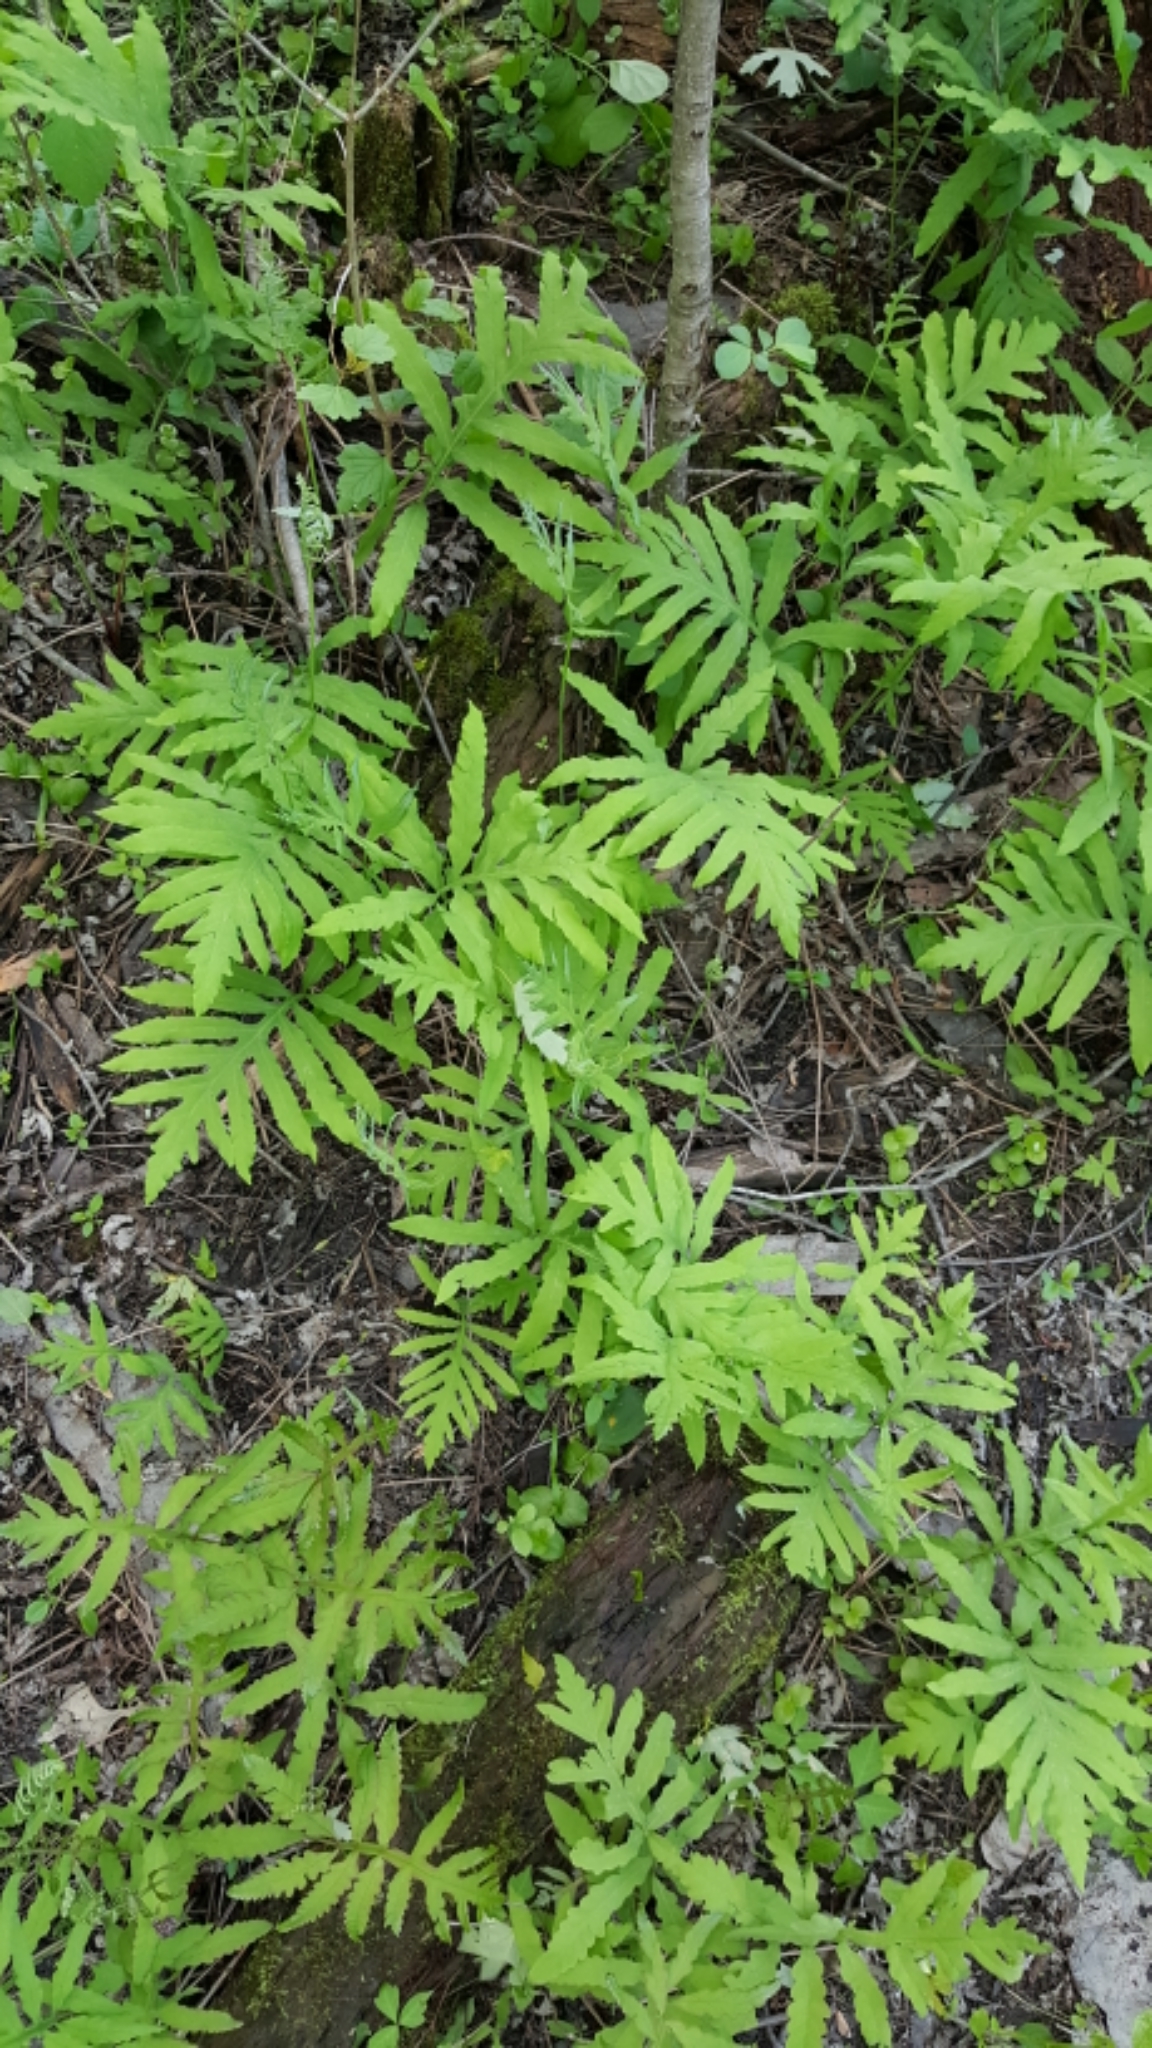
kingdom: Plantae
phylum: Tracheophyta
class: Polypodiopsida
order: Polypodiales
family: Onocleaceae
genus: Onoclea
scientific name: Onoclea sensibilis
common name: Sensitive fern
